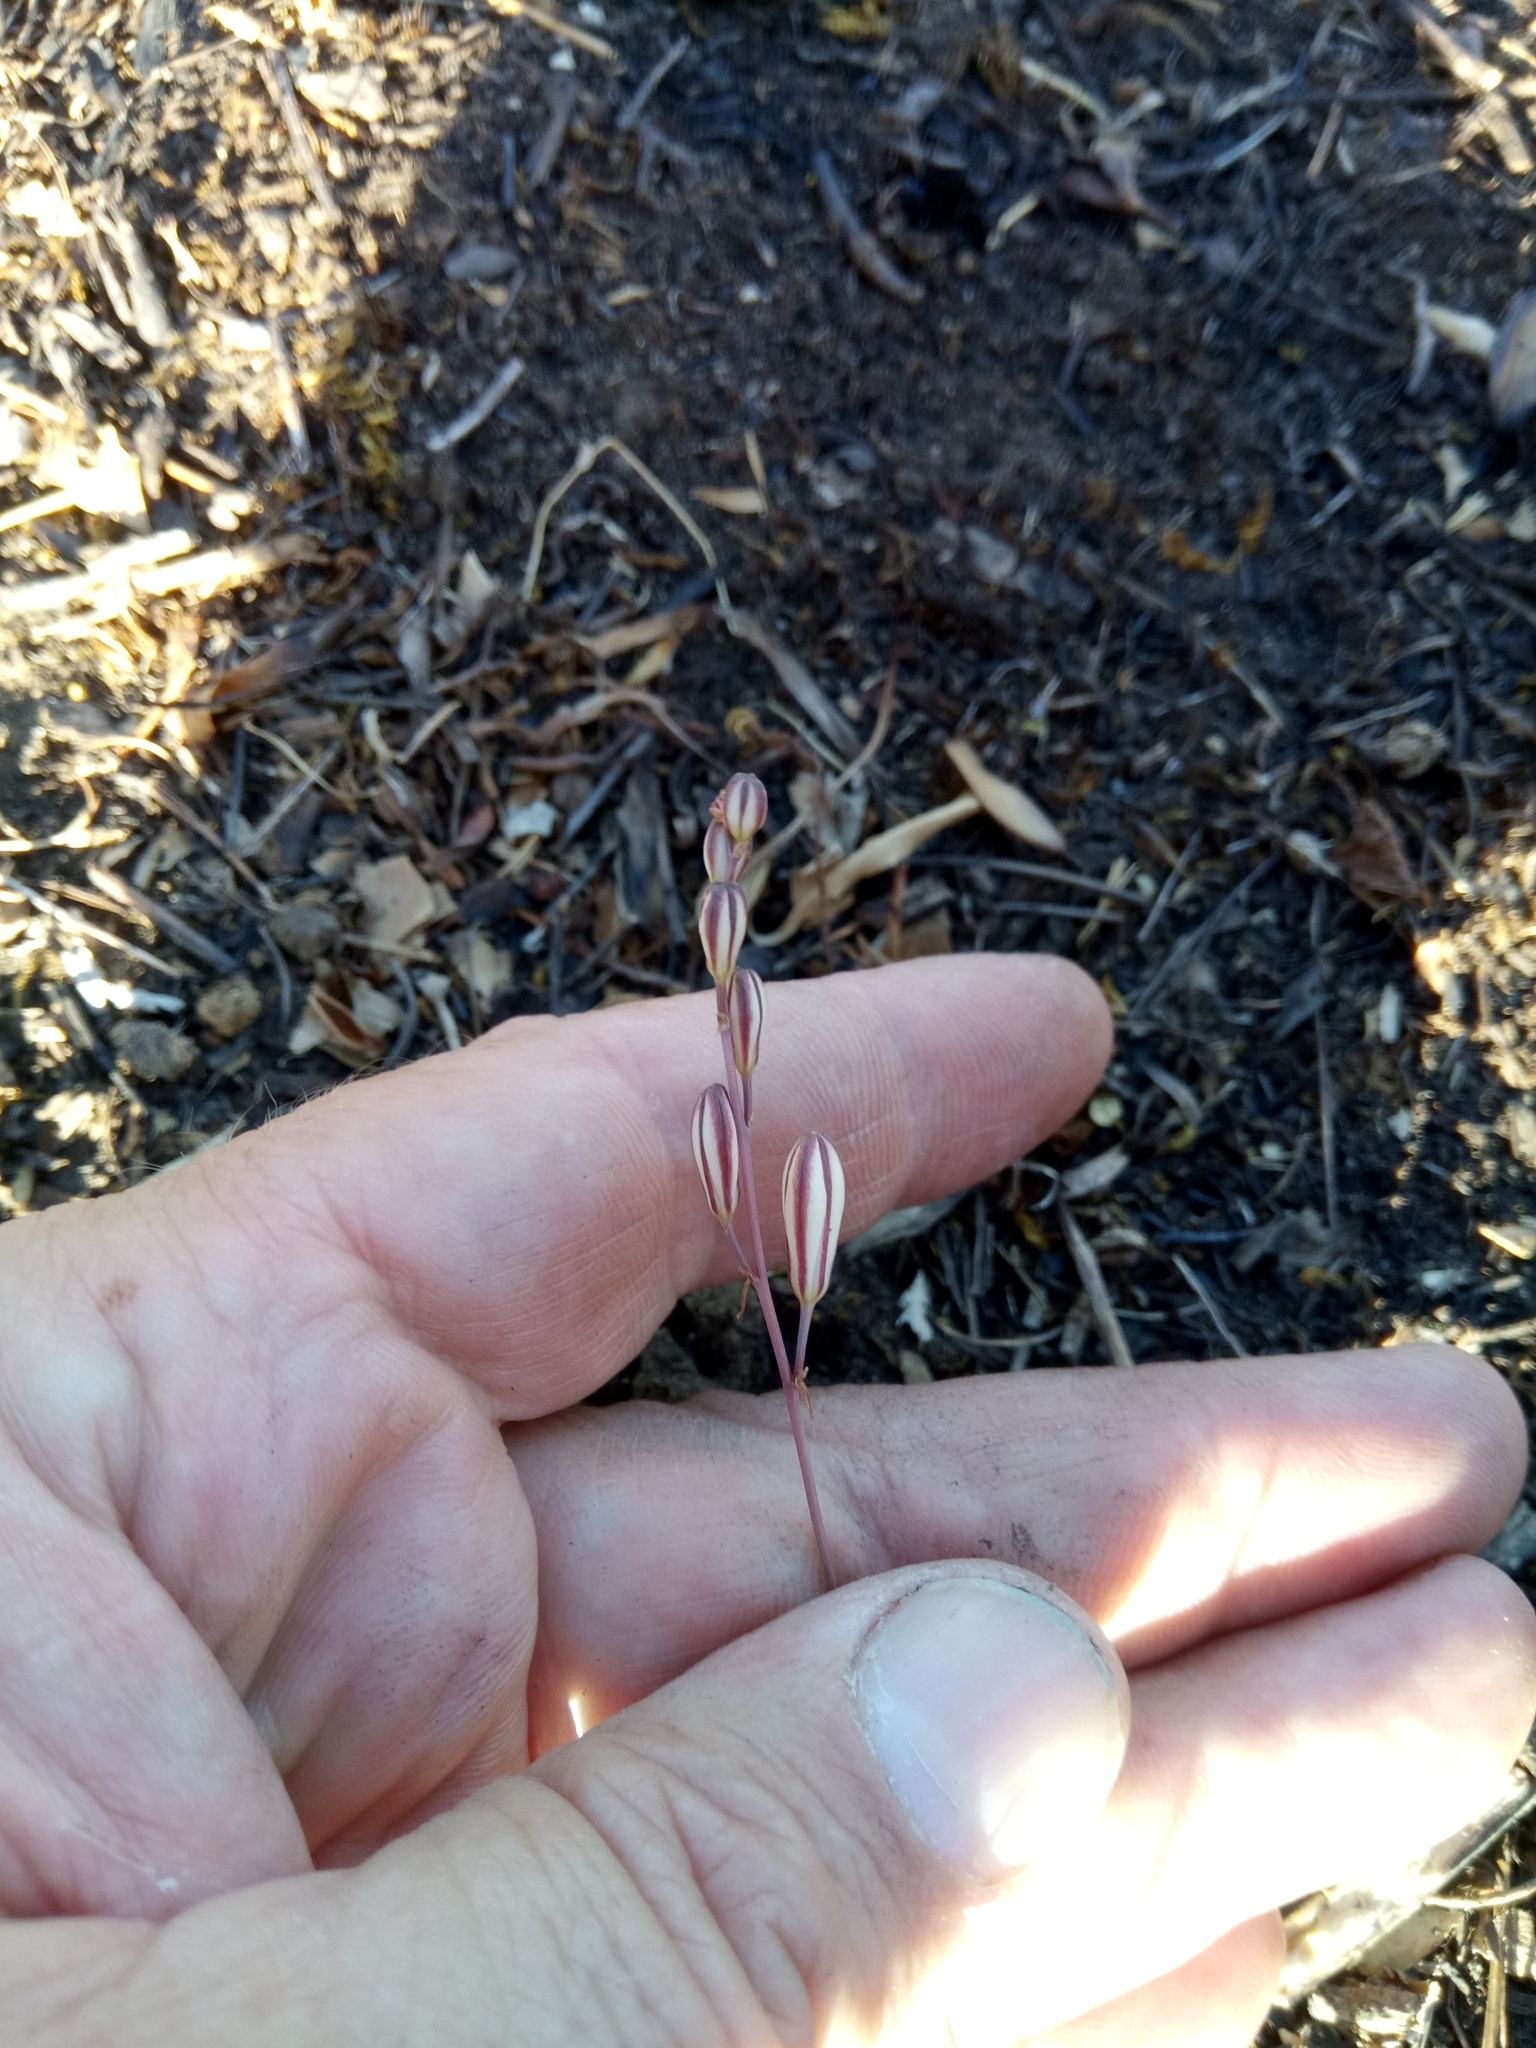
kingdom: Plantae
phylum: Tracheophyta
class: Liliopsida
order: Asparagales
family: Asparagaceae
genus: Drimia
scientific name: Drimia fugax
